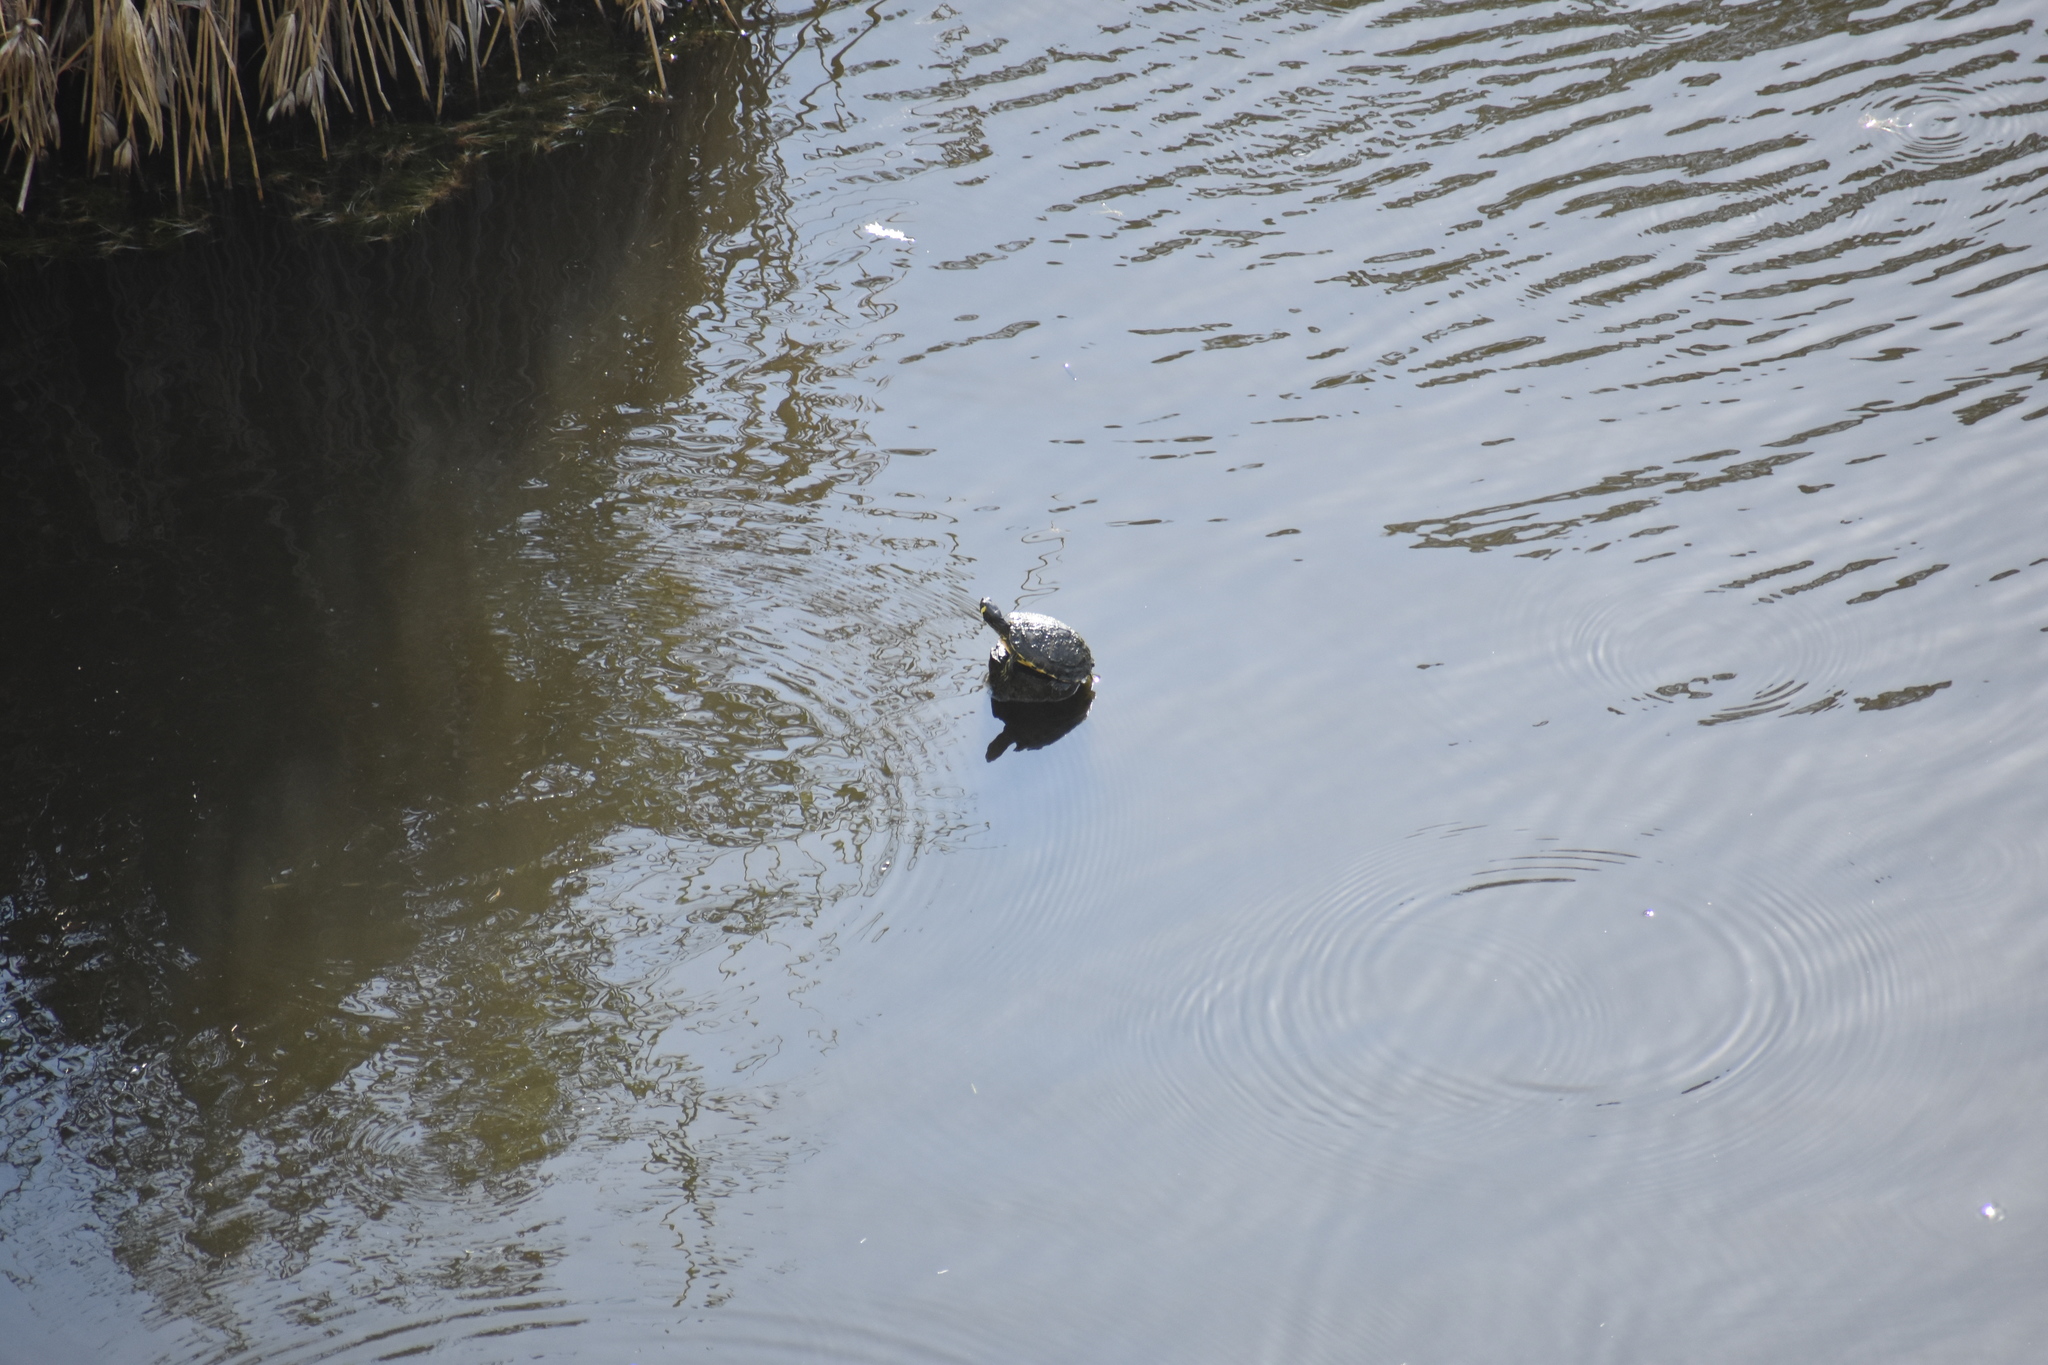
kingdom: Animalia
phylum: Chordata
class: Testudines
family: Emydidae
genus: Trachemys
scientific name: Trachemys scripta
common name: Slider
